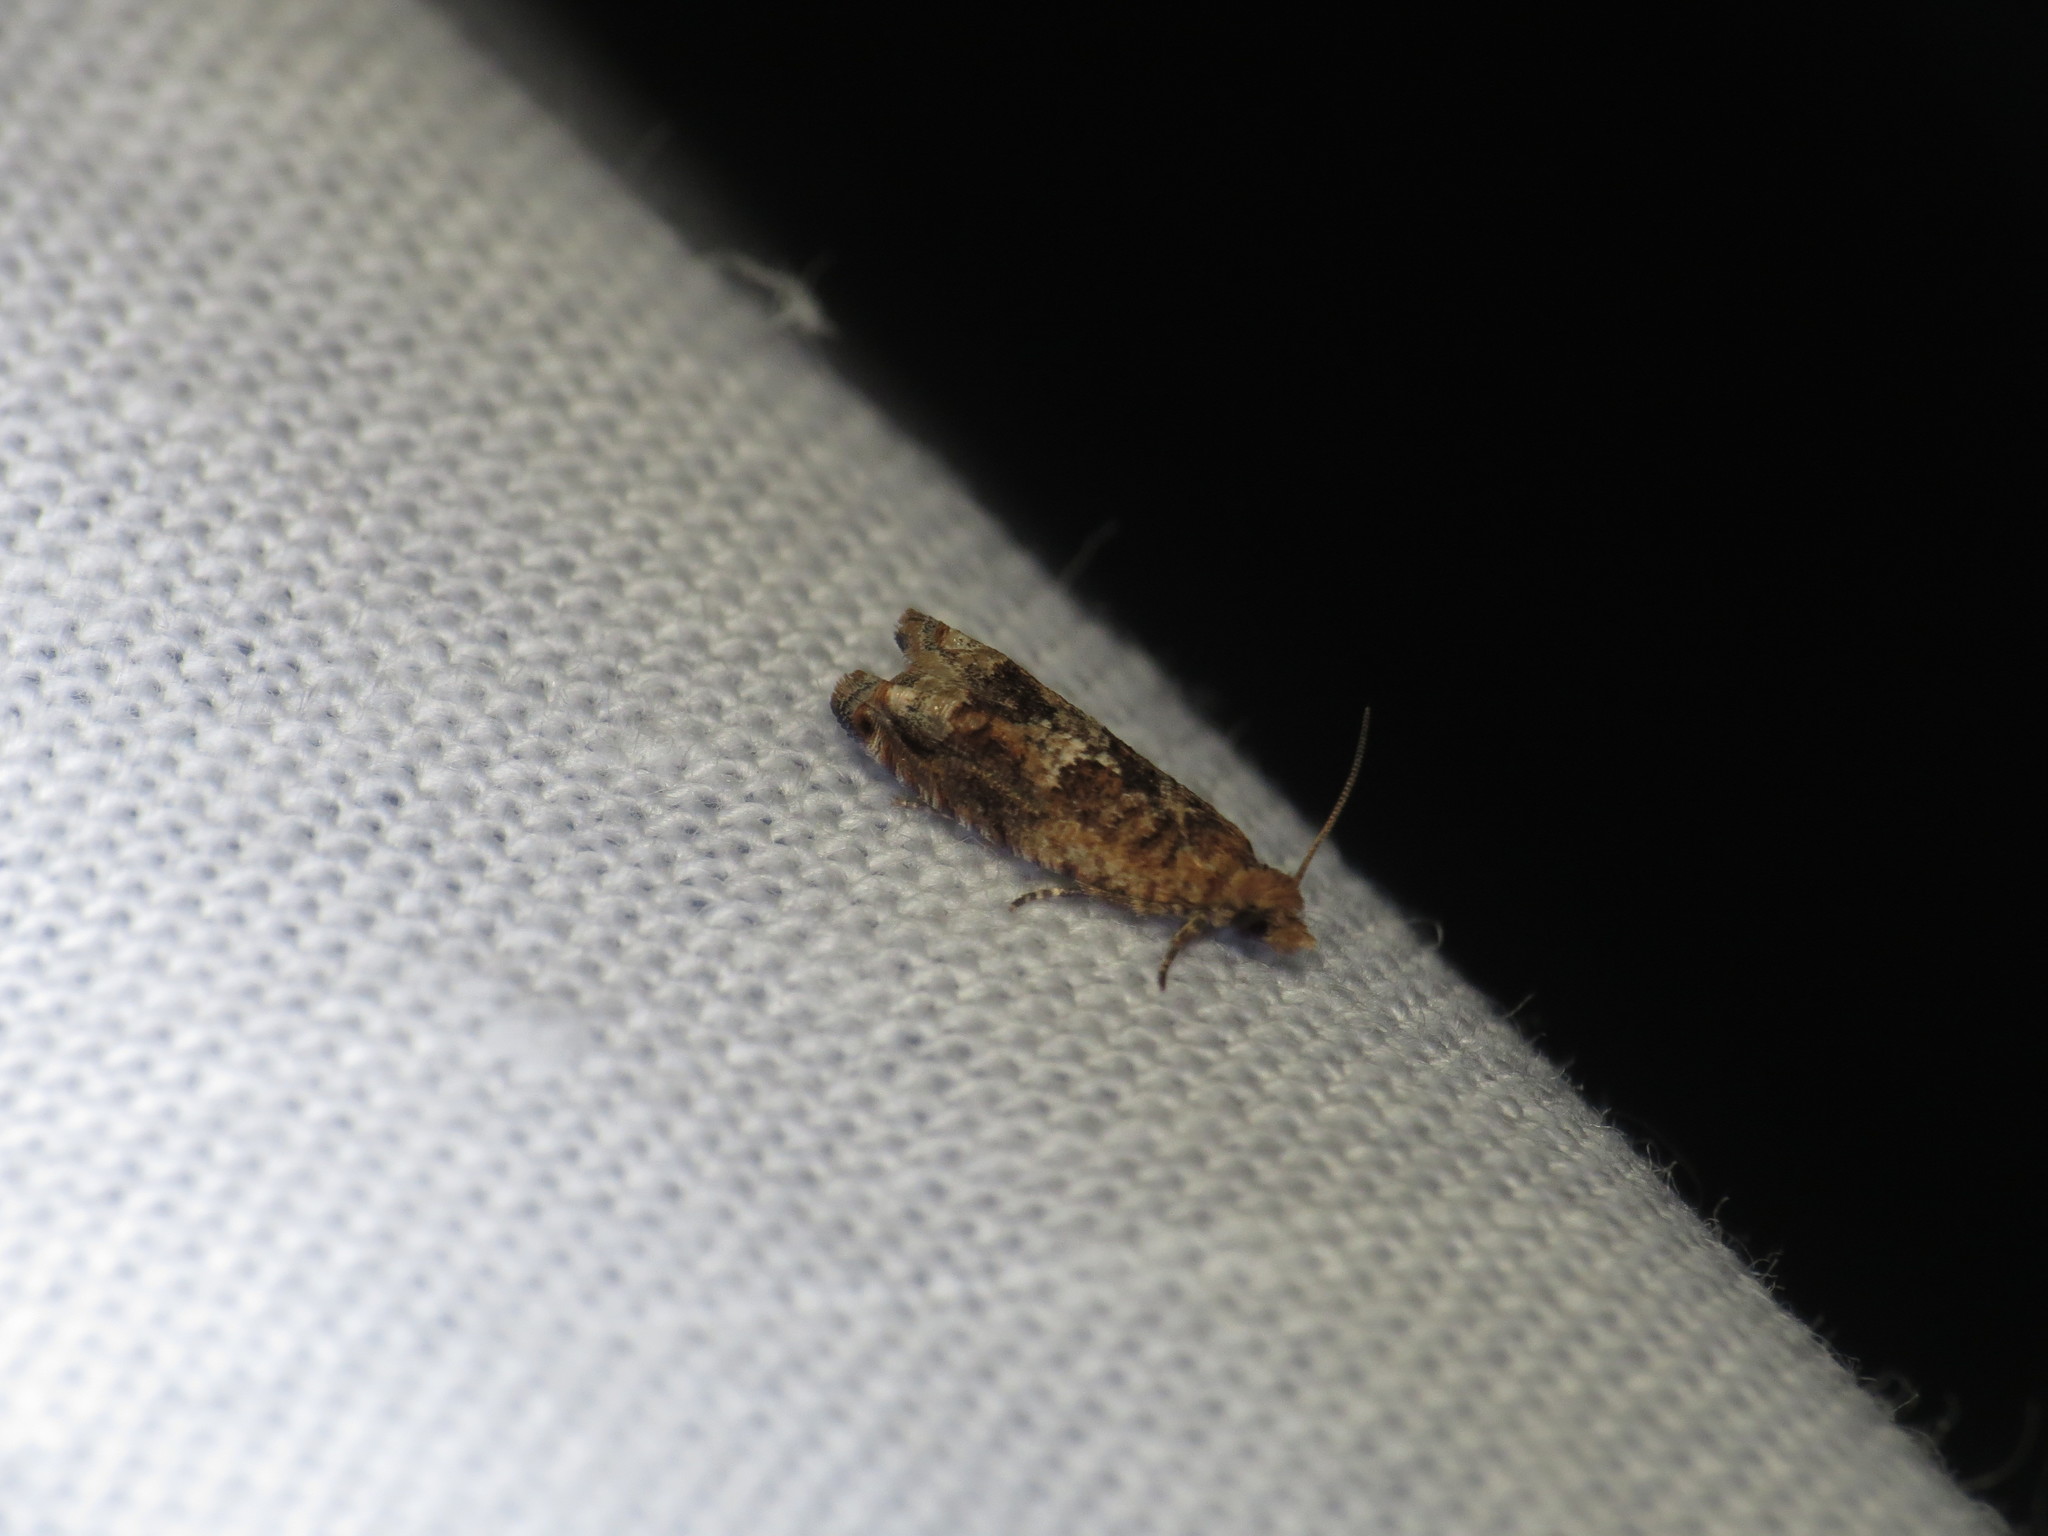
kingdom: Animalia
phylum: Arthropoda
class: Insecta
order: Lepidoptera
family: Tortricidae
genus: Crocidosema
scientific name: Crocidosema lantana
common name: Lantana flower-cluster moth
